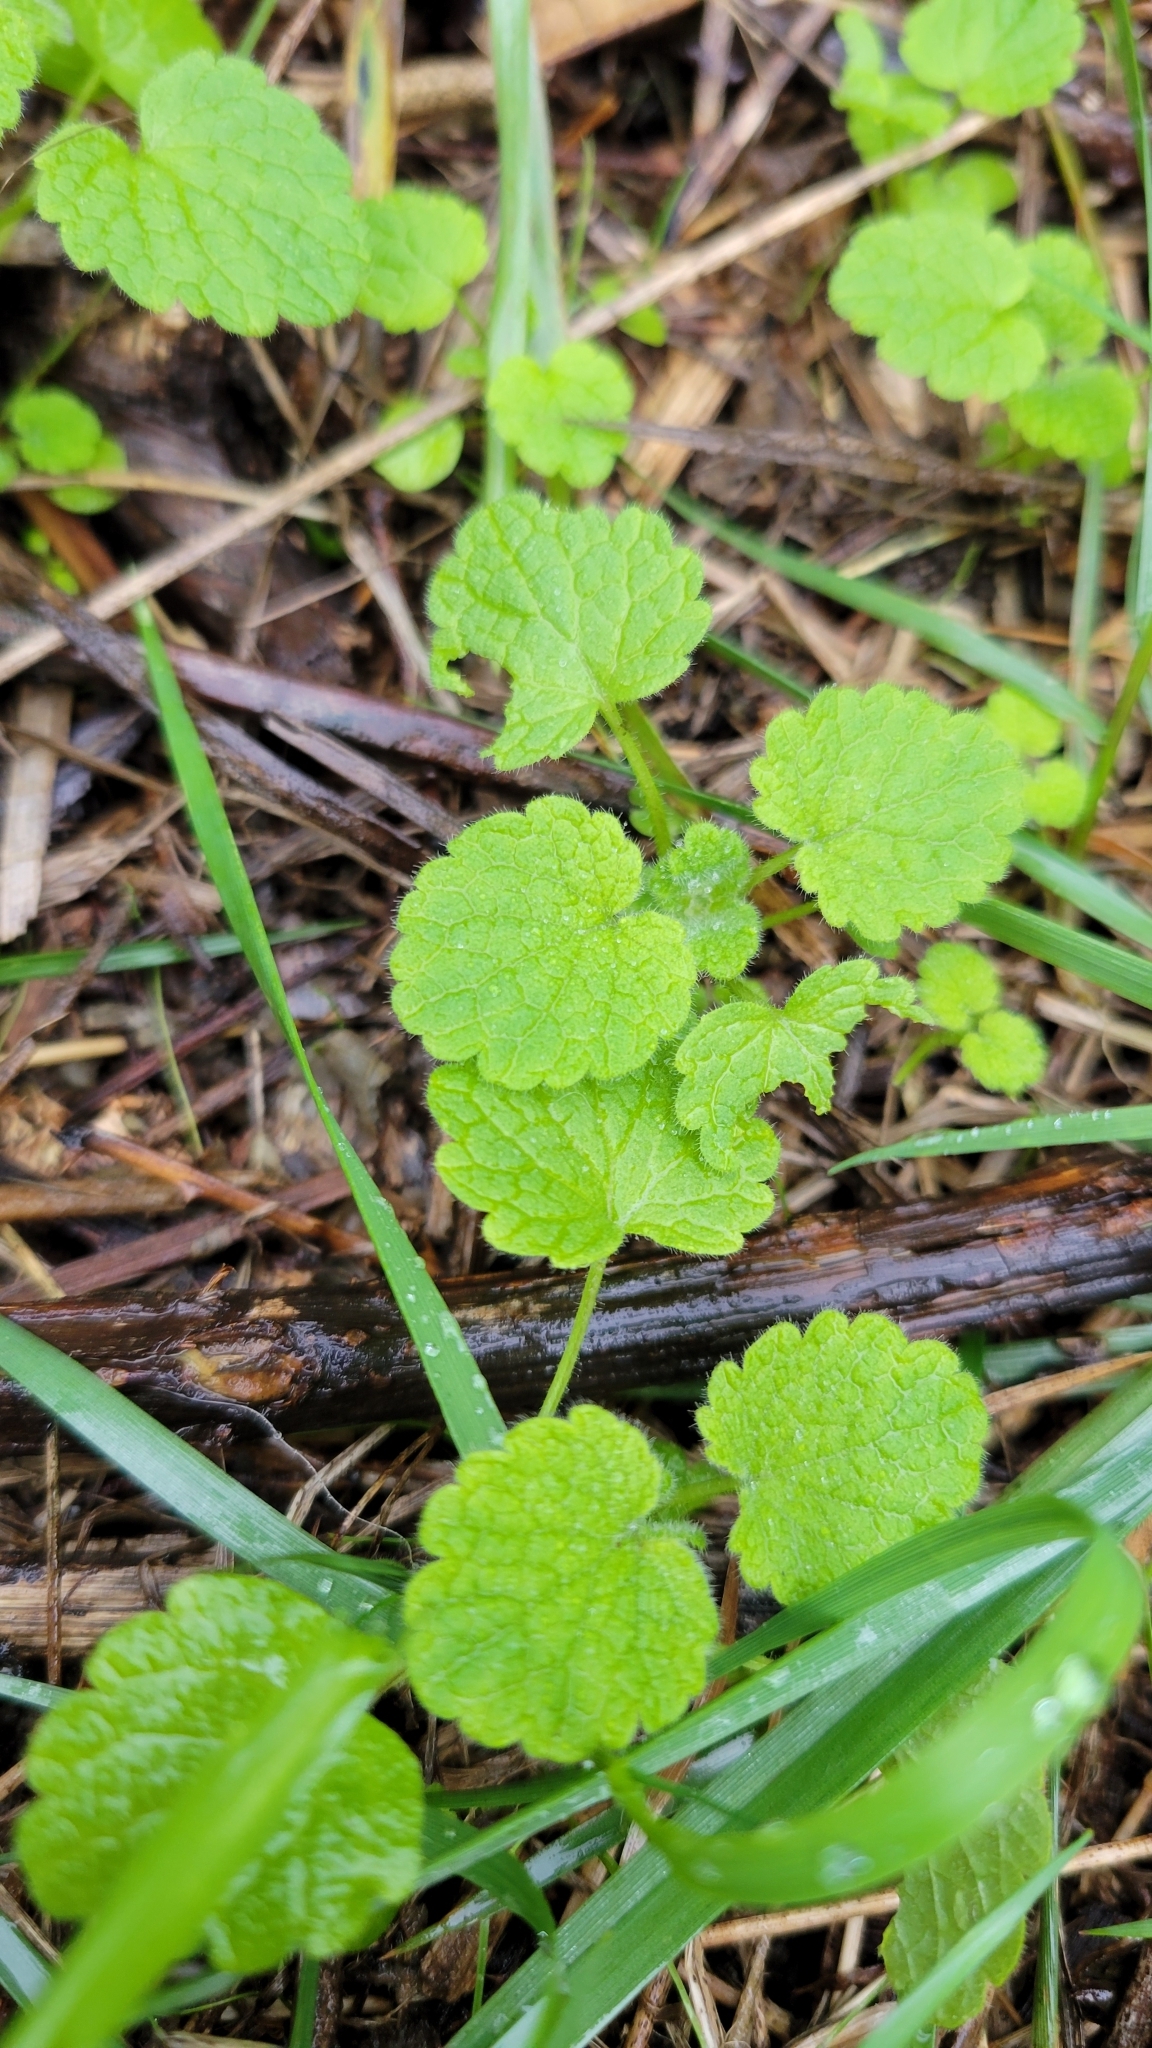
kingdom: Plantae
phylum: Tracheophyta
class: Magnoliopsida
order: Lamiales
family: Lamiaceae
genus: Lamium
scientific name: Lamium purpureum
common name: Red dead-nettle
